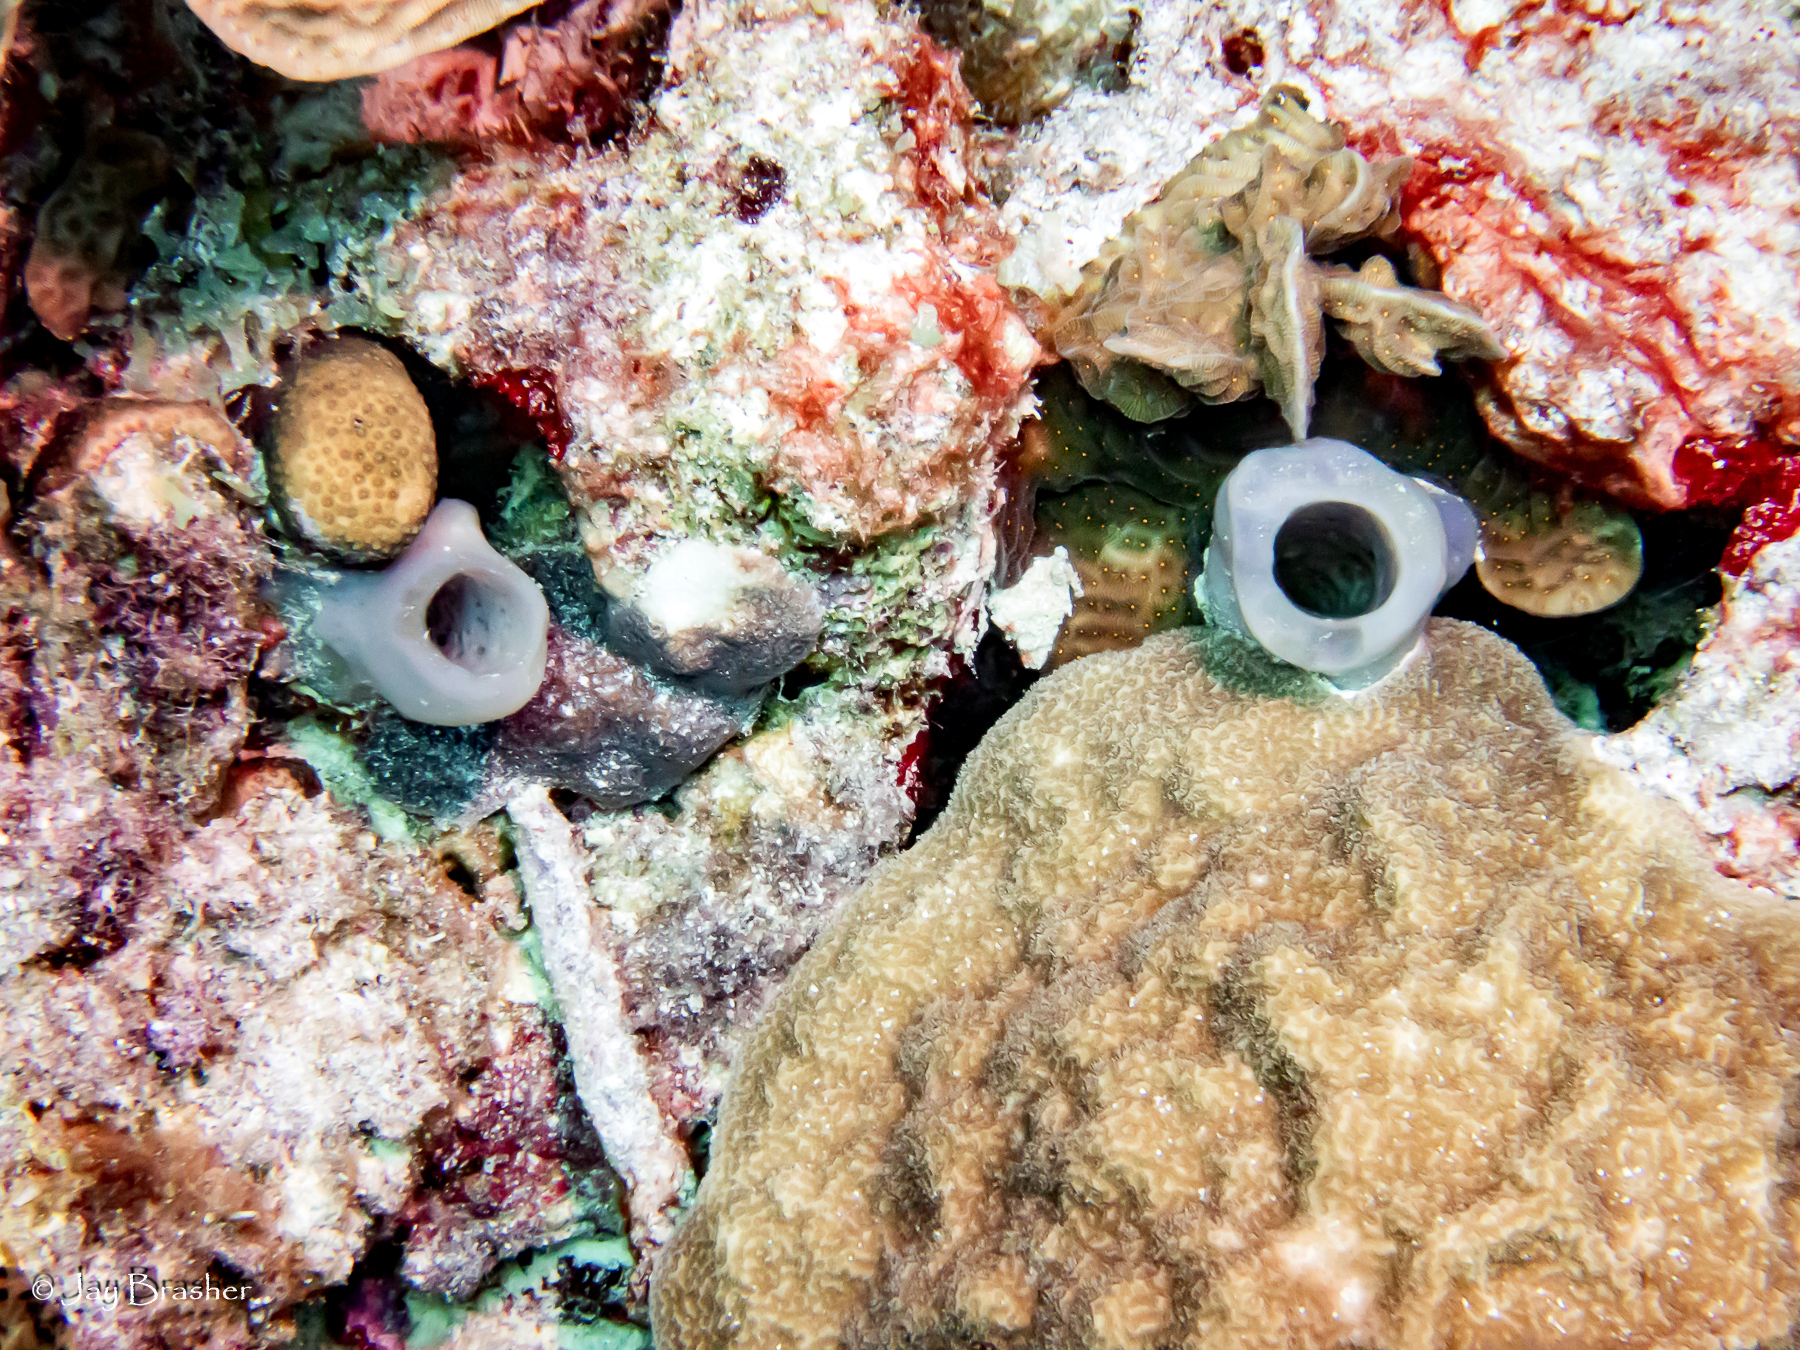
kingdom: Animalia
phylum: Porifera
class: Demospongiae
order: Haplosclerida
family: Callyspongiidae
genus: Callyspongia
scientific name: Callyspongia fallax
